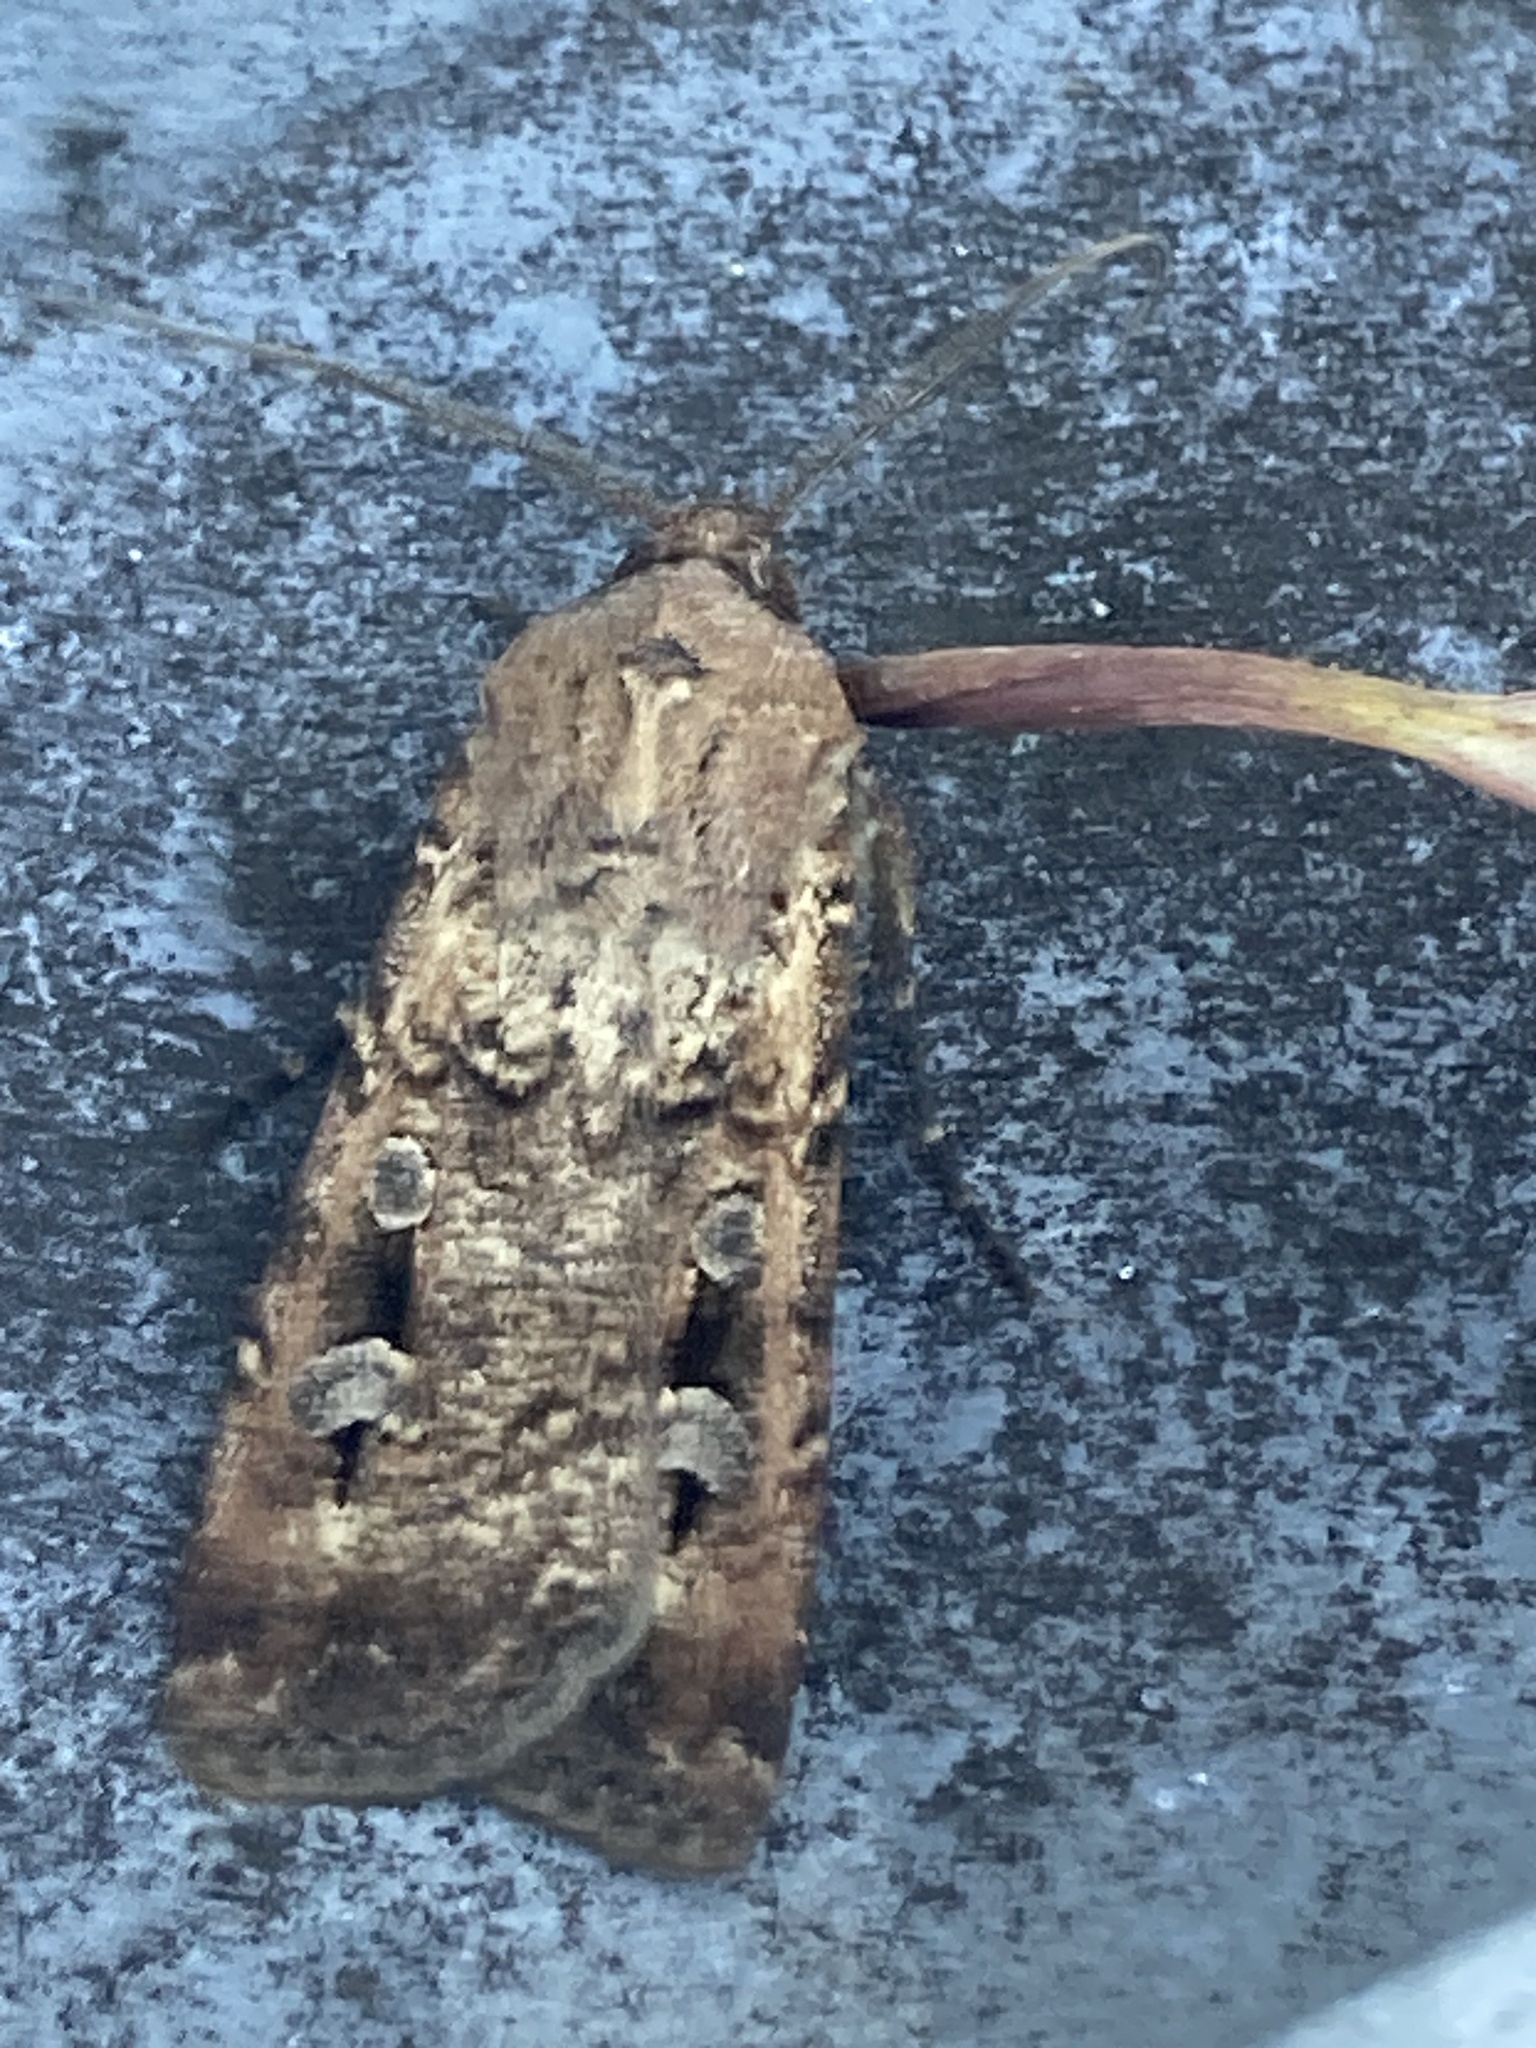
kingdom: Animalia
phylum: Arthropoda
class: Insecta
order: Lepidoptera
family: Noctuidae
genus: Agrotis
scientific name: Agrotis infusa
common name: Bogong moth
